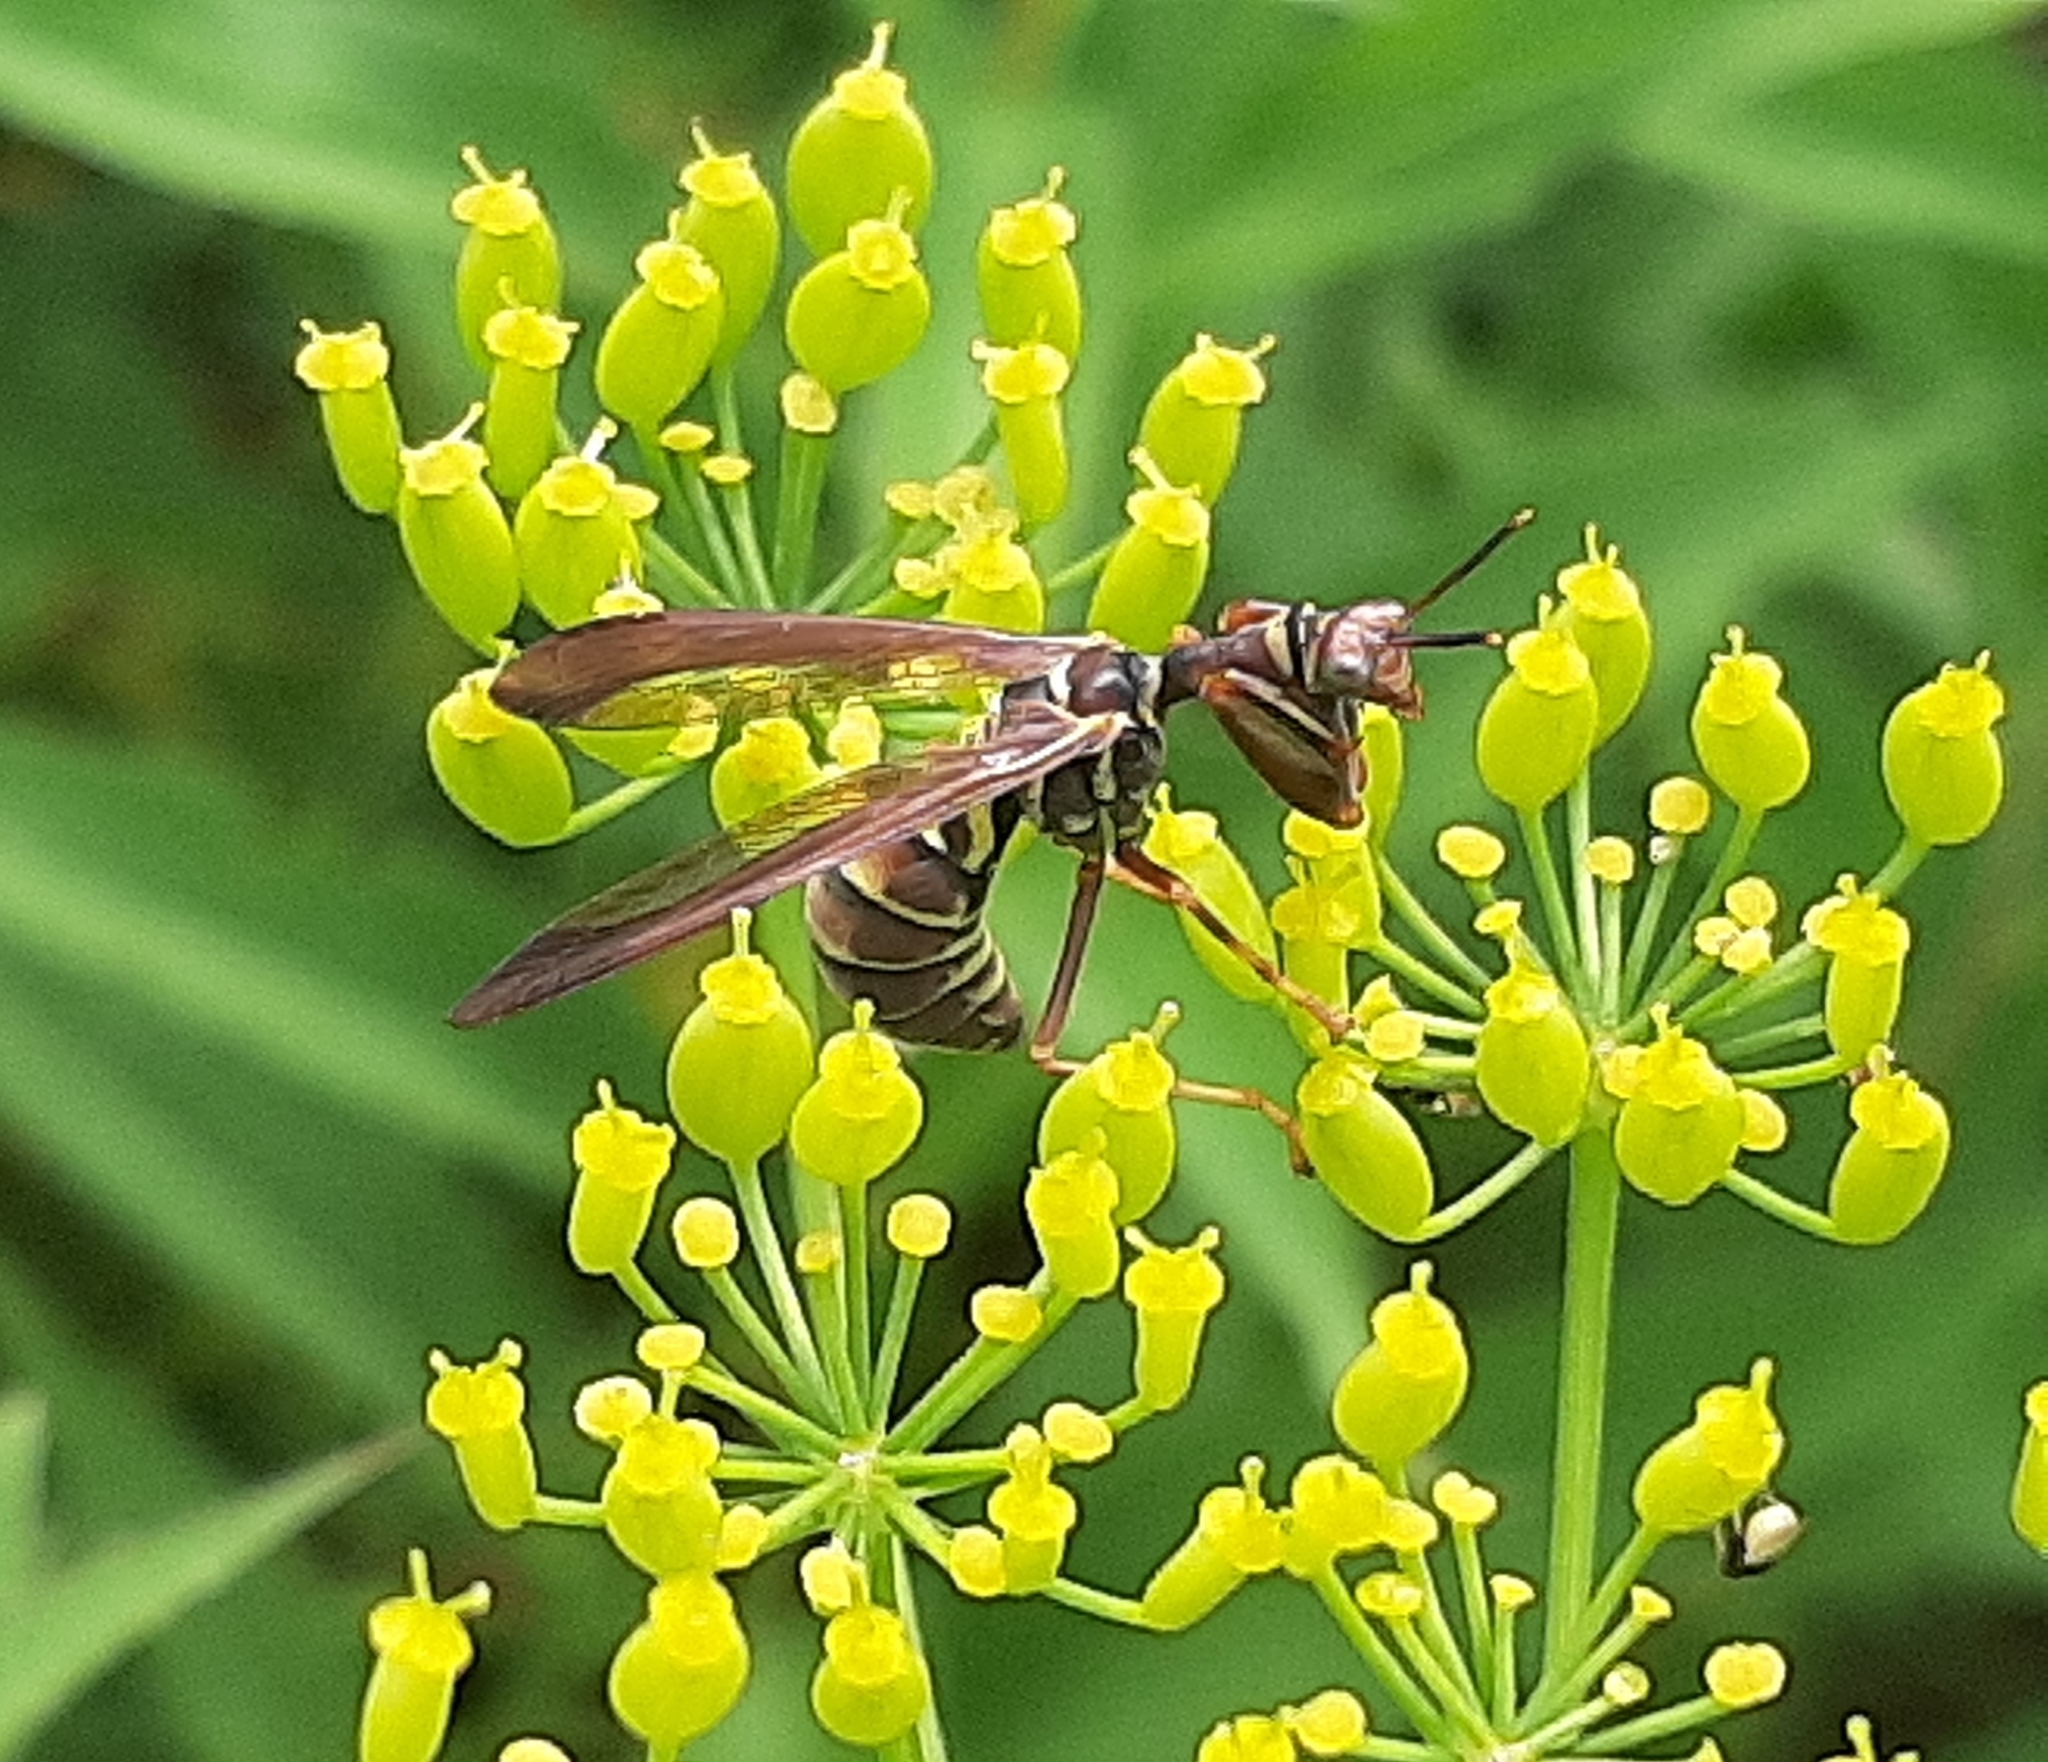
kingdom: Animalia
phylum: Arthropoda
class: Insecta
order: Neuroptera
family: Mantispidae
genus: Climaciella
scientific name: Climaciella brunnea
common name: Brown wasp mantidfly
